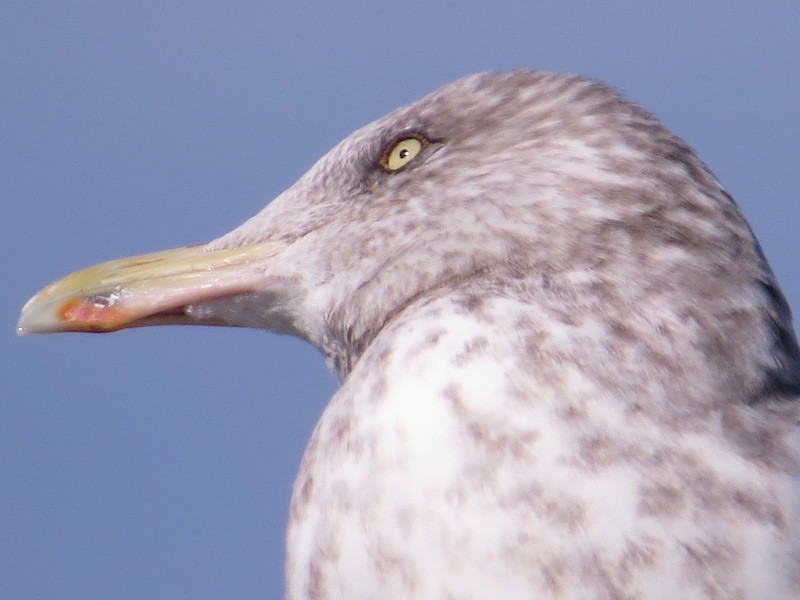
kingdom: Animalia
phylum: Chordata
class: Aves
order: Charadriiformes
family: Laridae
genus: Larus
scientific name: Larus argentatus
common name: Herring gull
